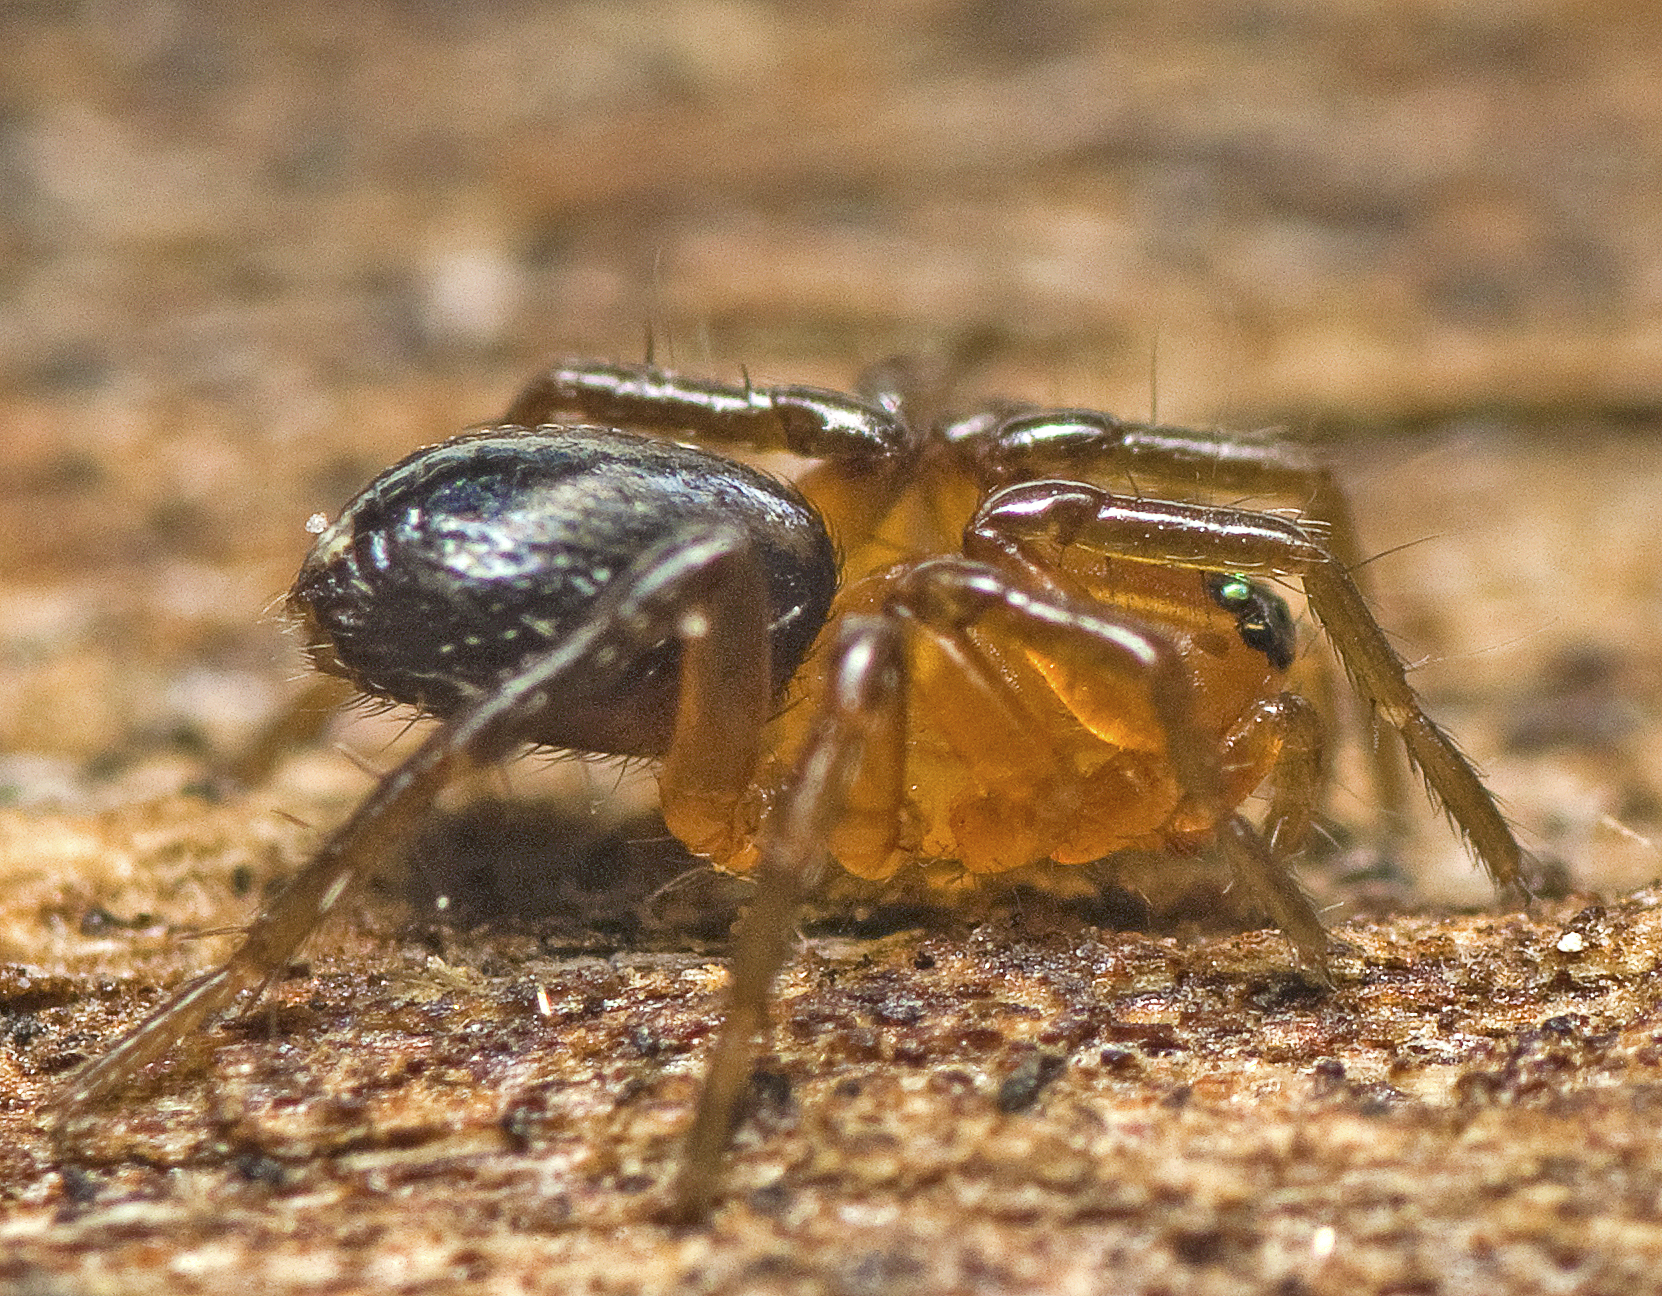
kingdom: Animalia
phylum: Arthropoda
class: Arachnida
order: Araneae
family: Zodariidae
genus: Hetaerica
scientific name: Hetaerica scenica
